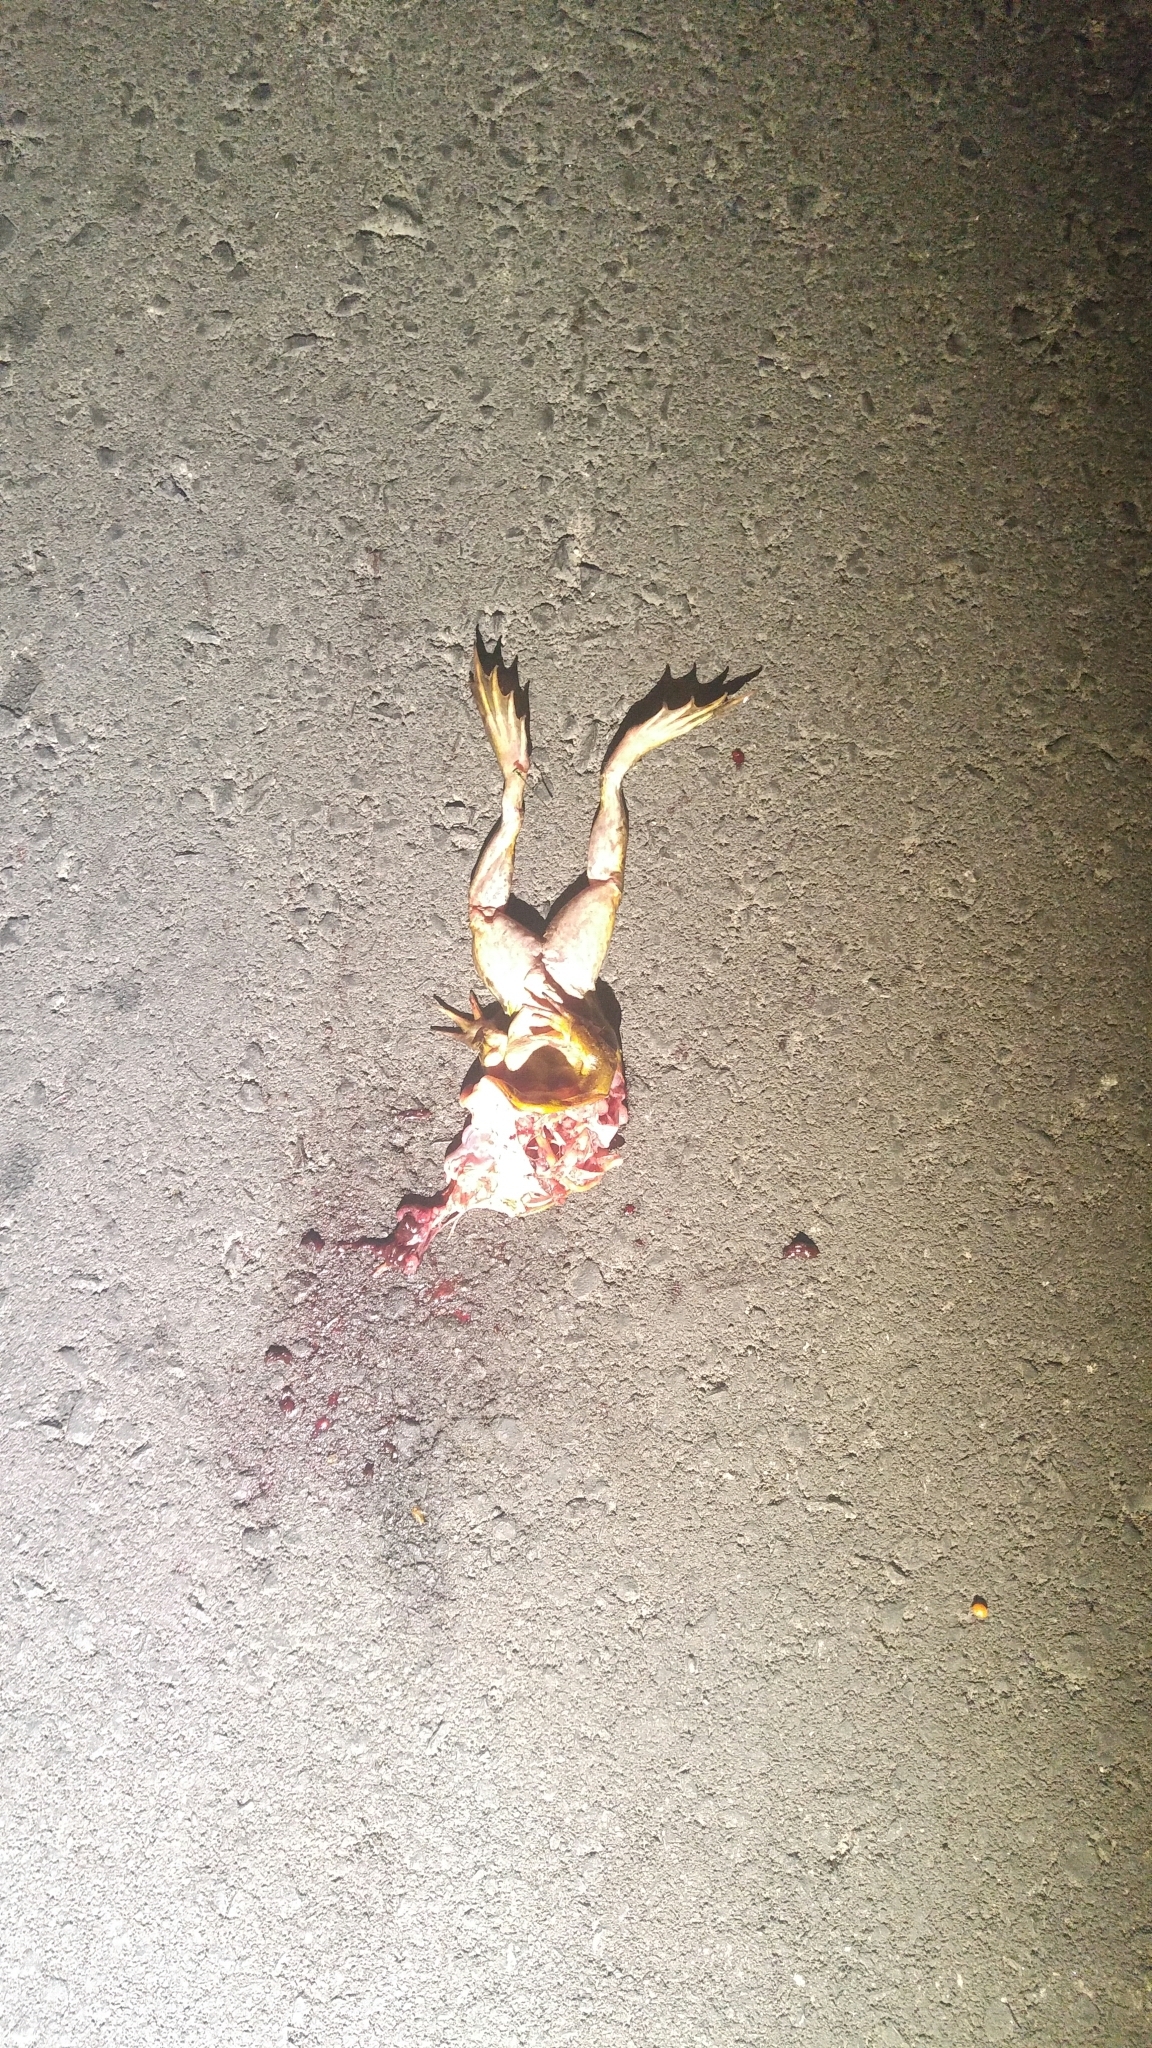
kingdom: Animalia
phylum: Chordata
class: Amphibia
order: Anura
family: Ranidae
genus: Lithobates
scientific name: Lithobates catesbeianus
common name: American bullfrog
